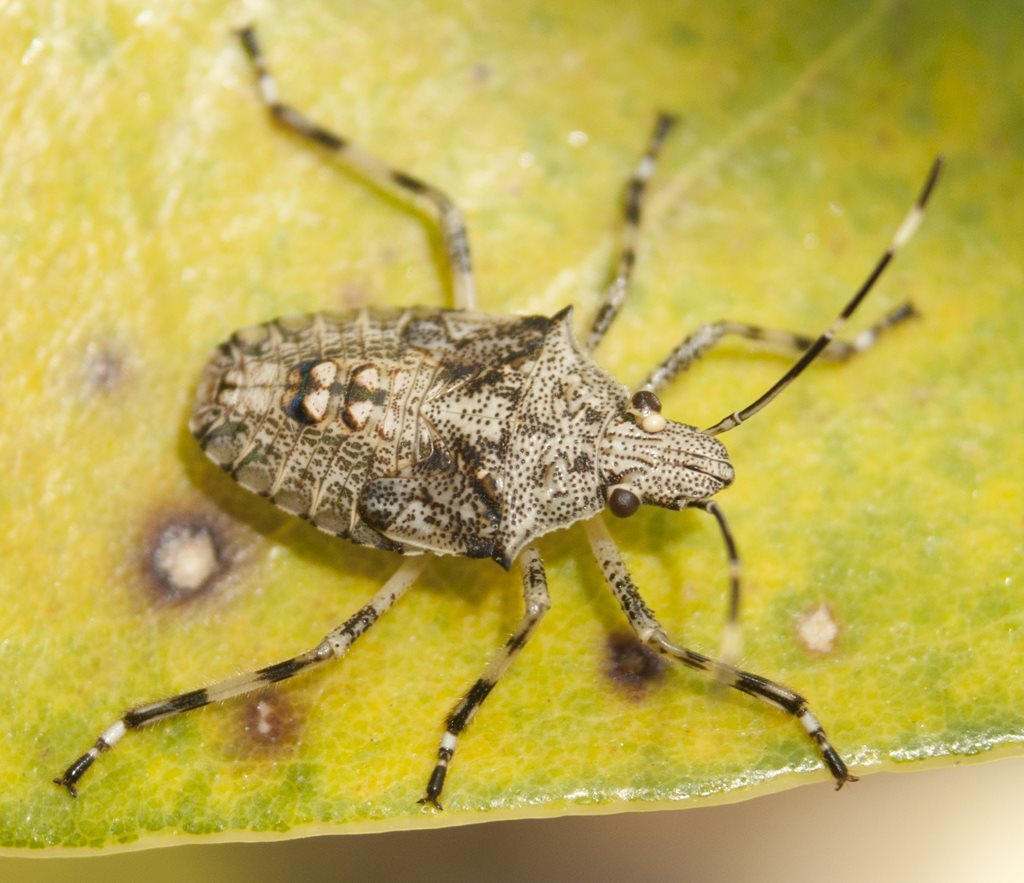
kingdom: Animalia
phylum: Arthropoda
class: Insecta
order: Hemiptera
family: Pentatomidae
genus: Bromocoris
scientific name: Bromocoris
